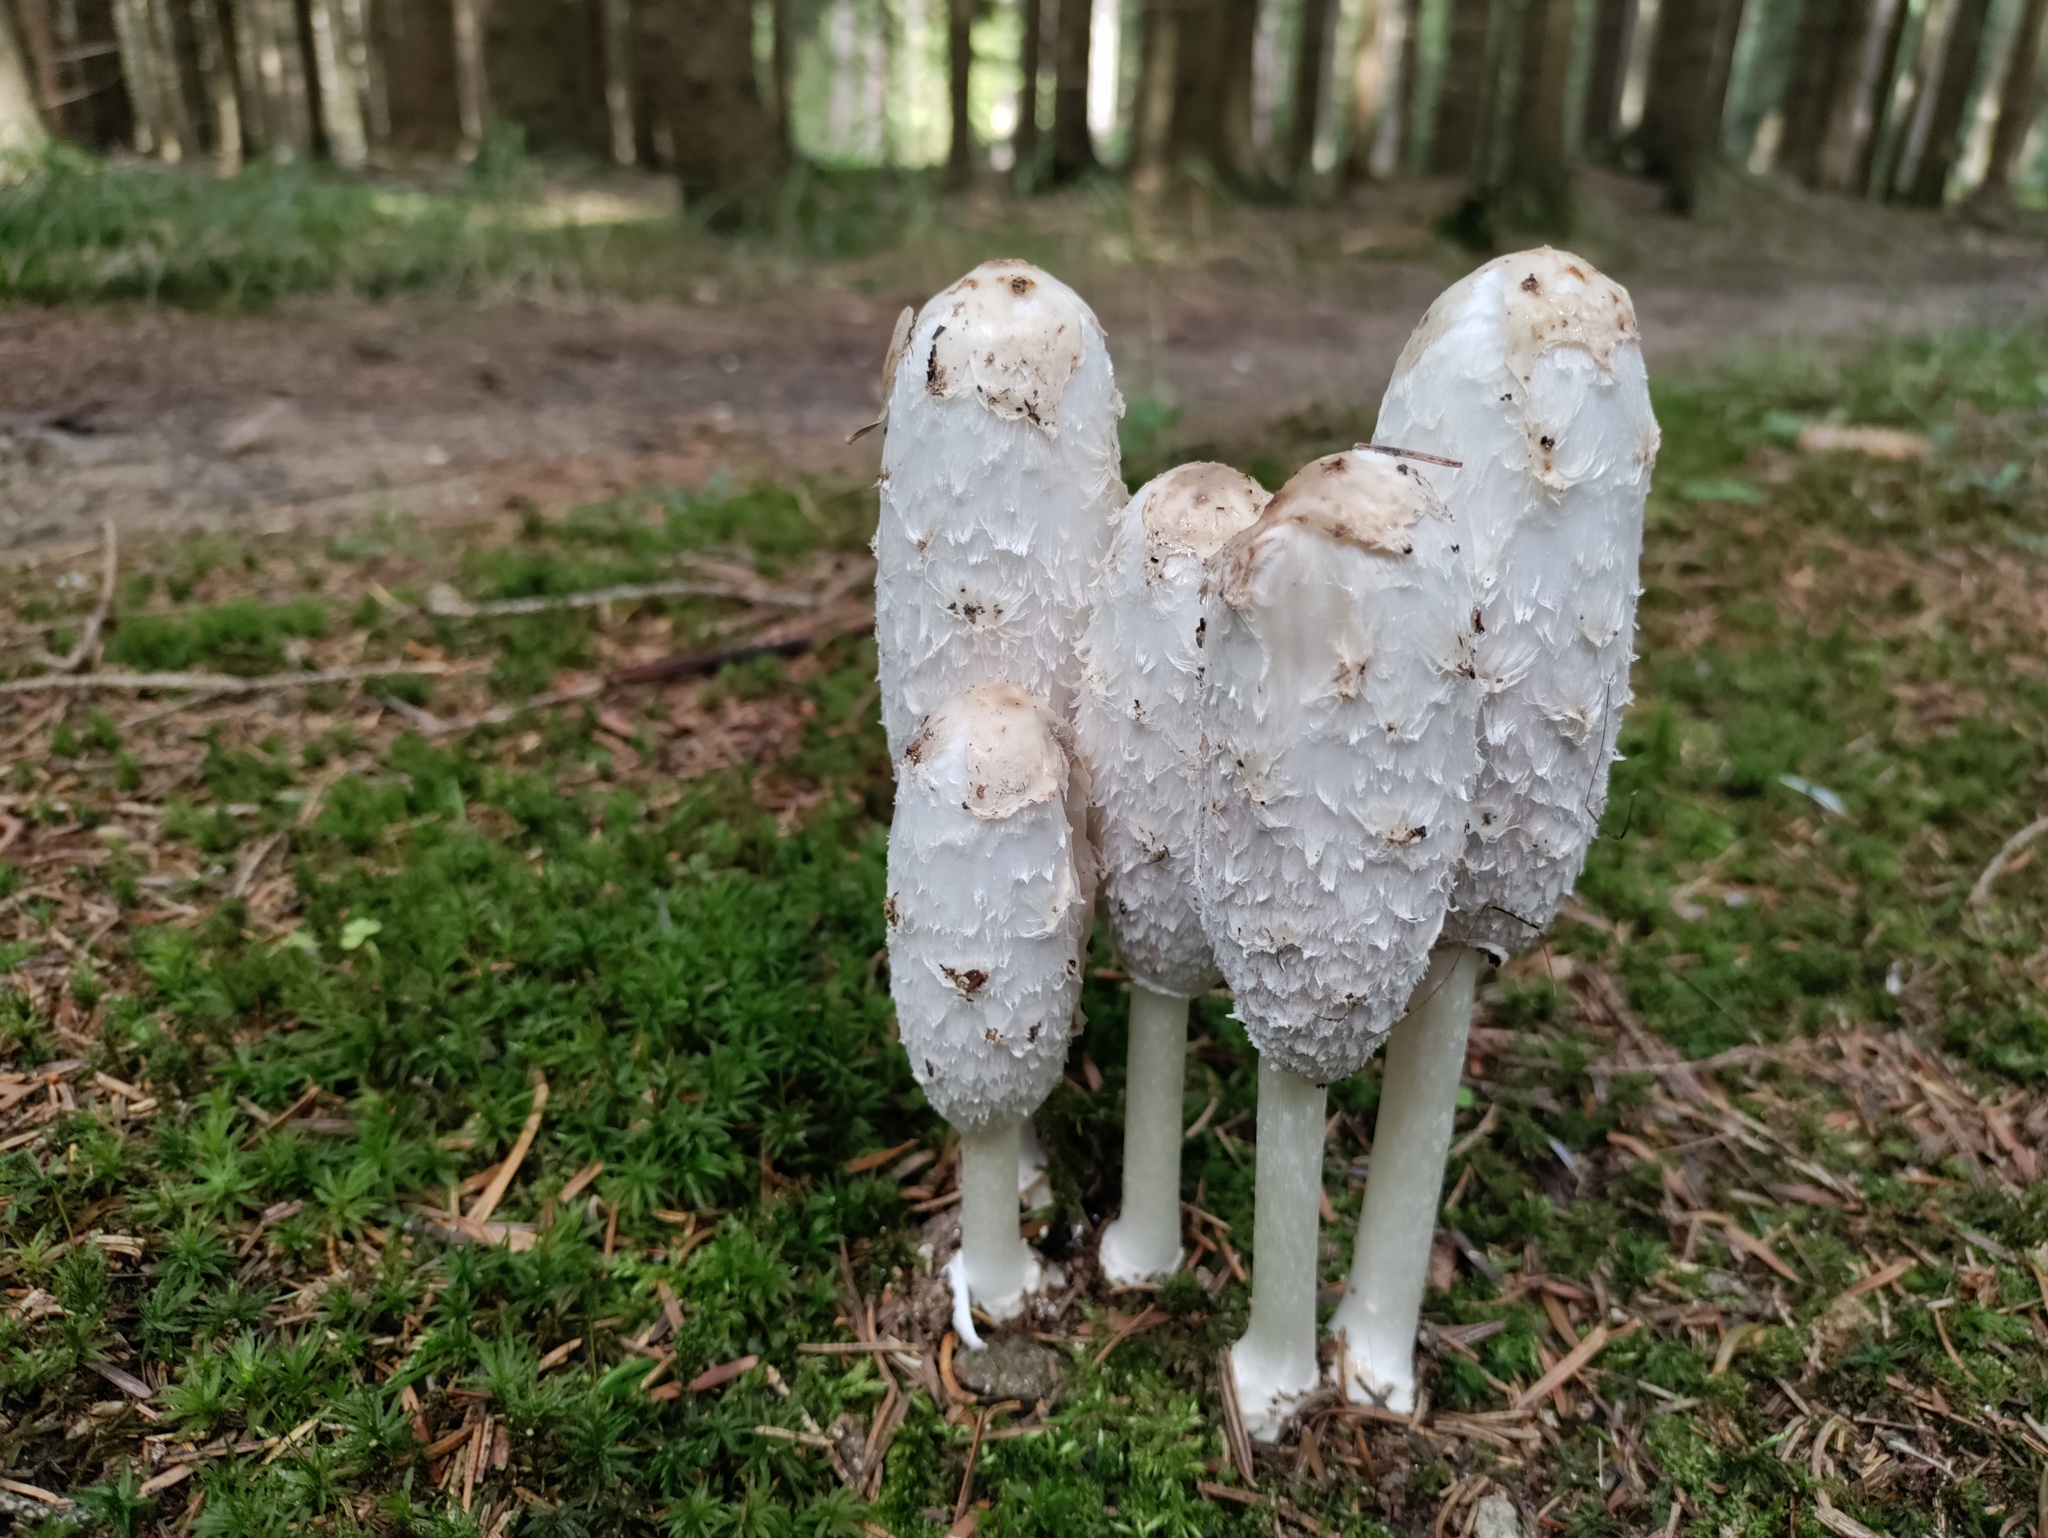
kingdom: Fungi
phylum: Basidiomycota
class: Agaricomycetes
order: Agaricales
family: Agaricaceae
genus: Coprinus
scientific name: Coprinus comatus
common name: Lawyer's wig
